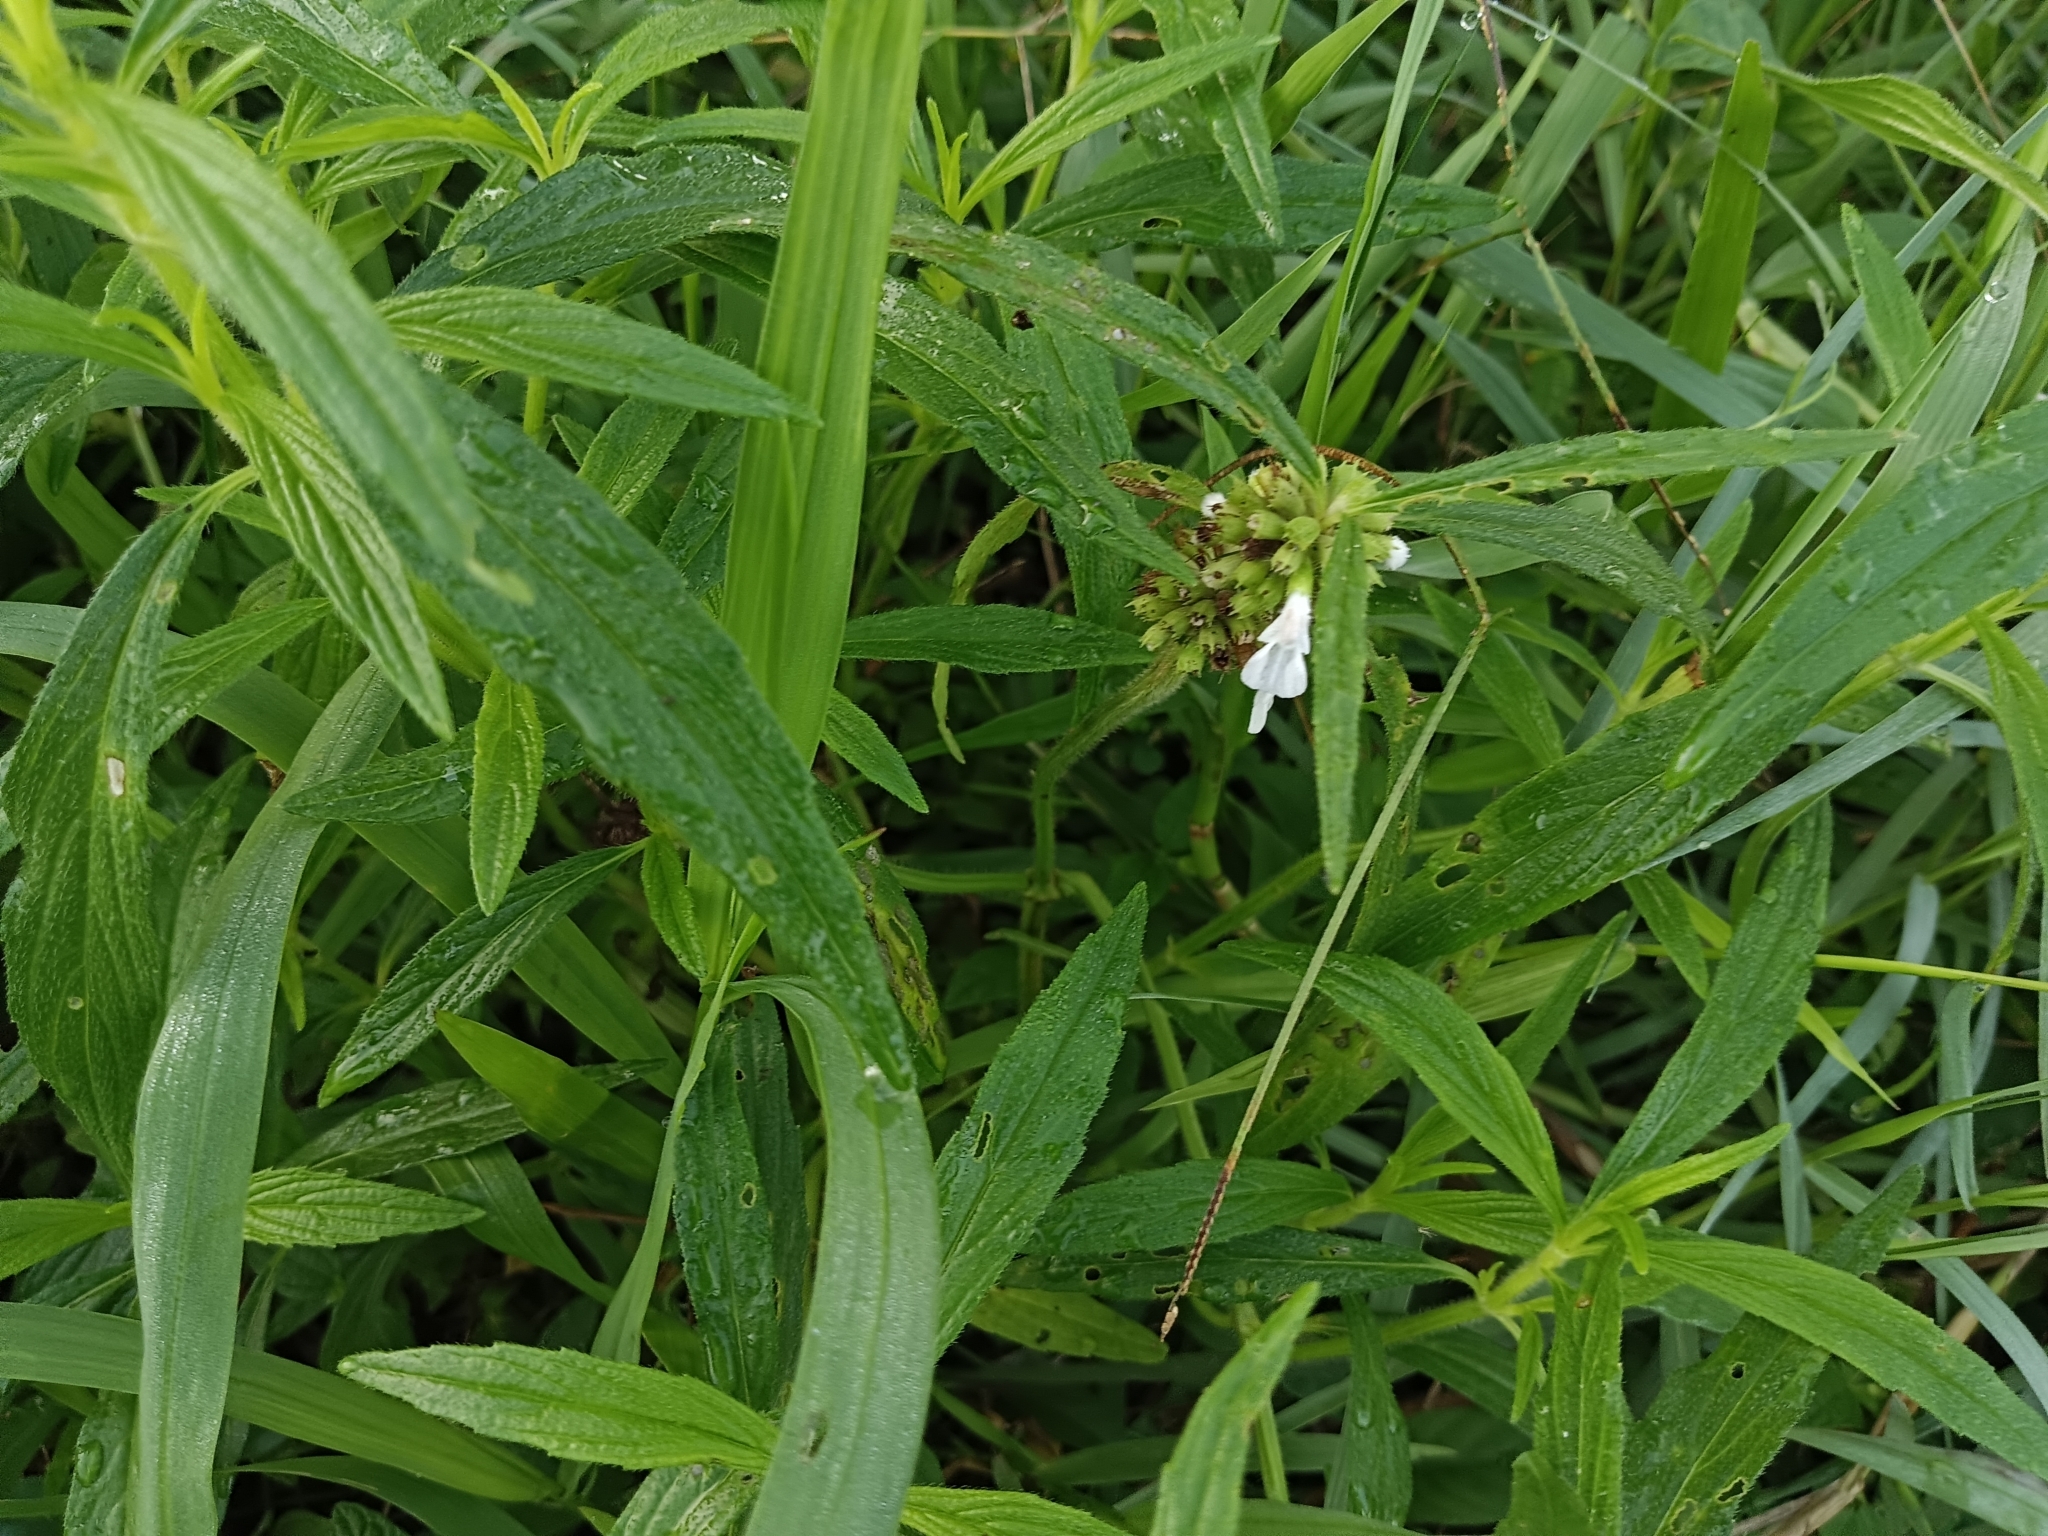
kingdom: Plantae
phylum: Tracheophyta
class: Magnoliopsida
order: Lamiales
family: Lamiaceae
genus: Leucas
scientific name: Leucas aspera
